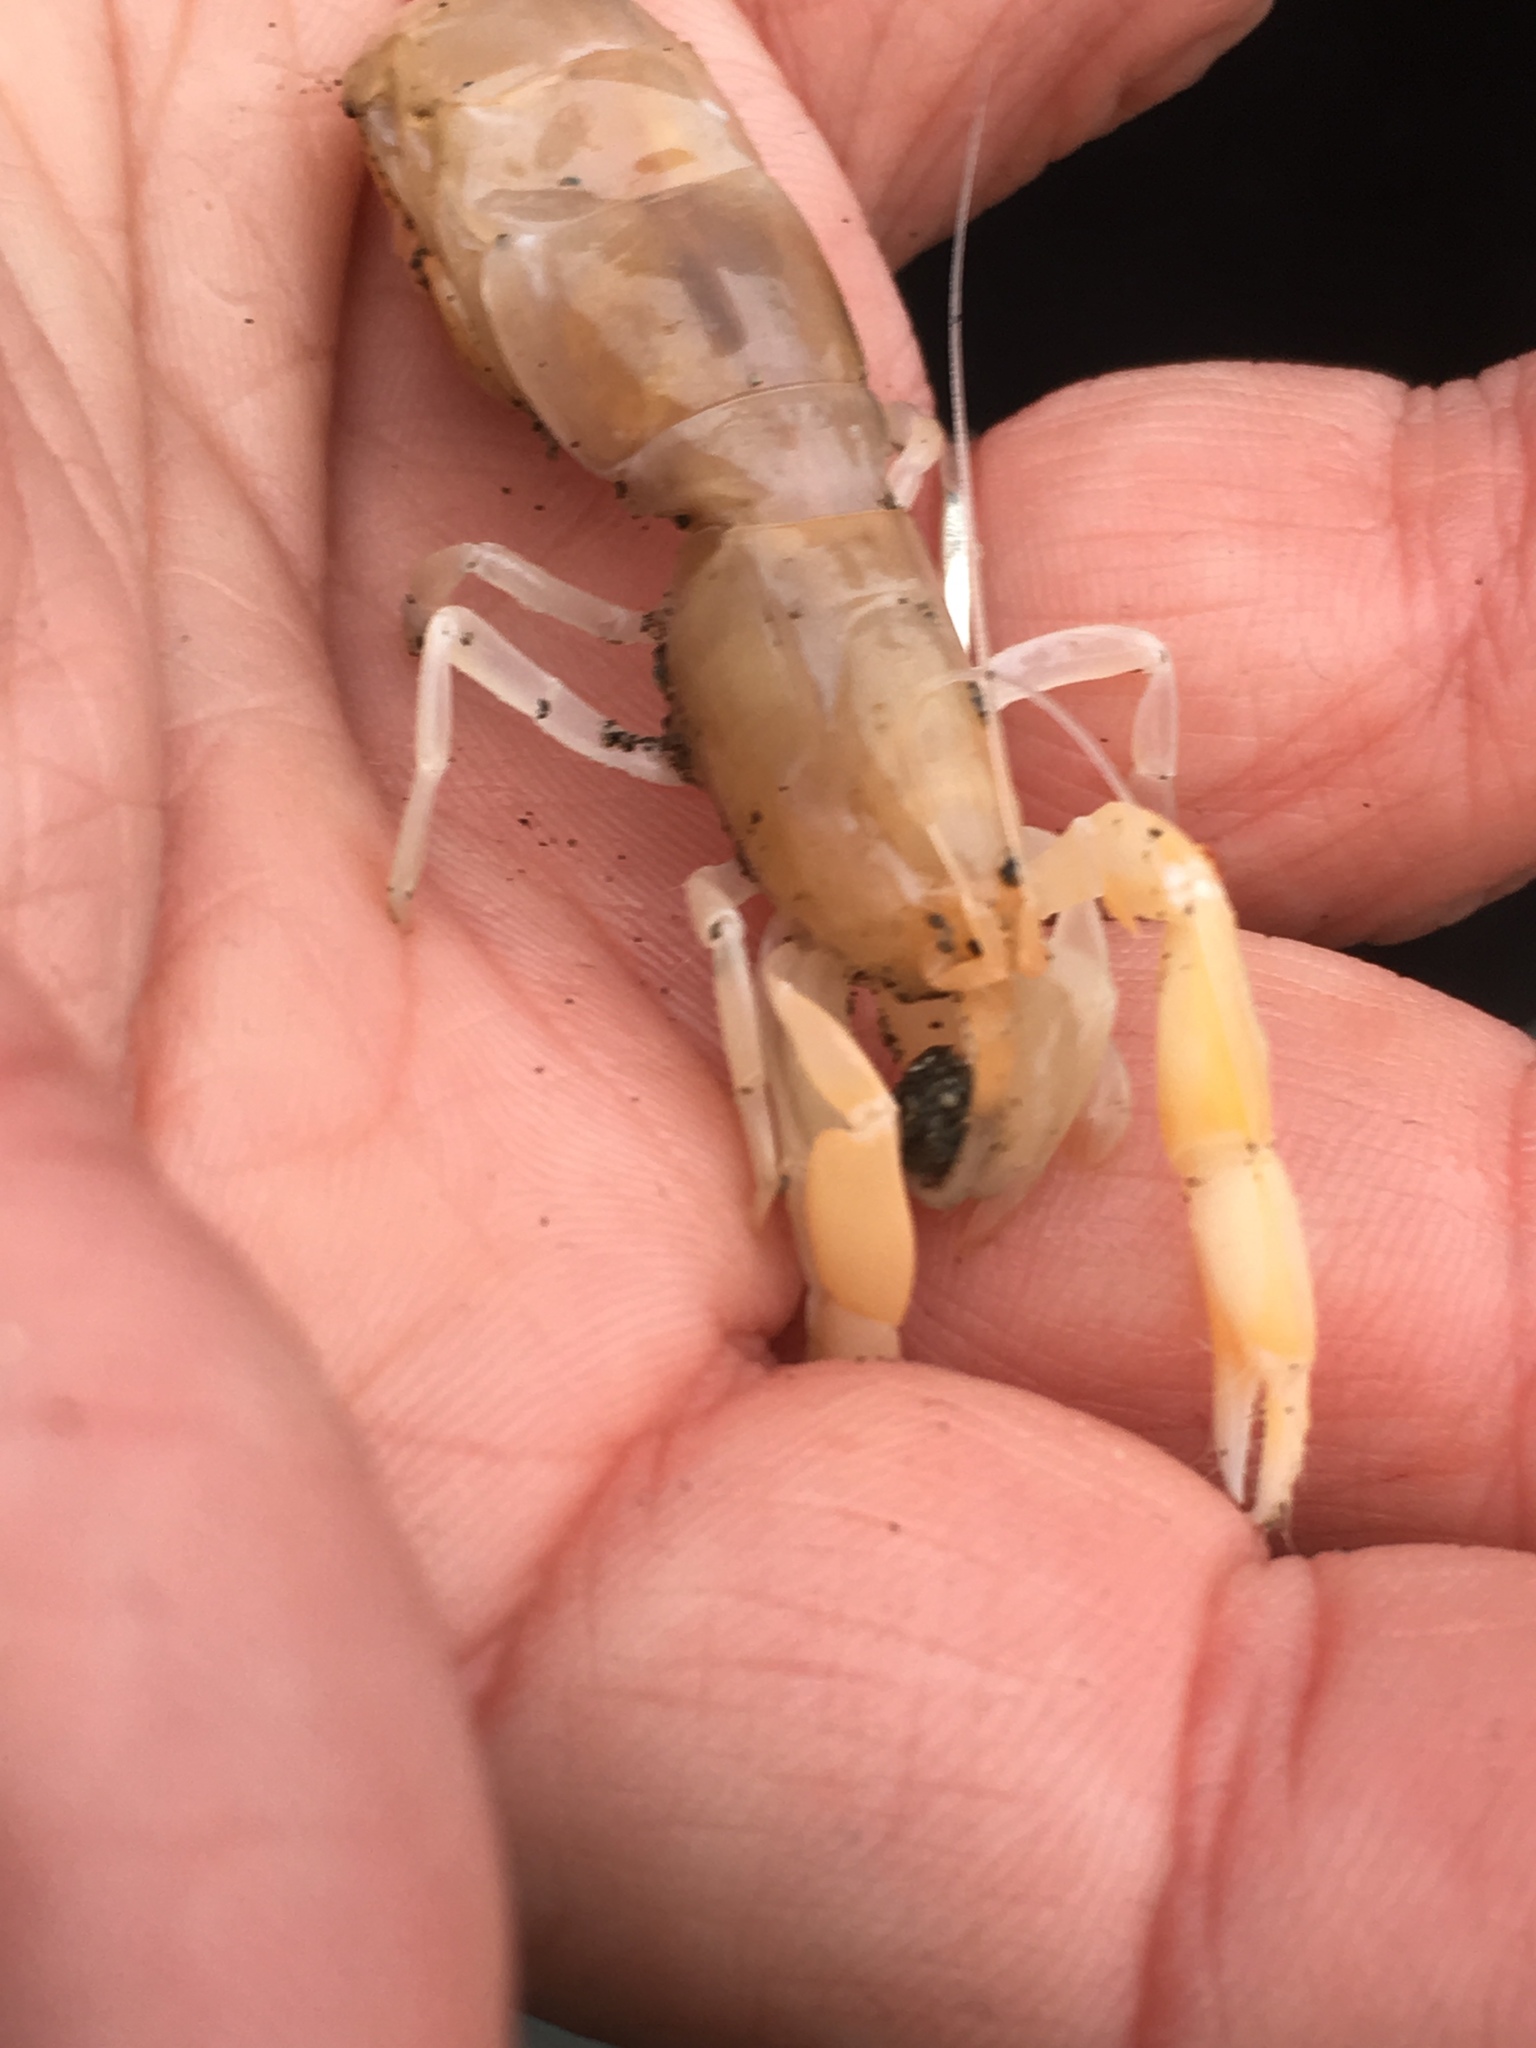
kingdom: Animalia
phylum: Arthropoda
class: Malacostraca
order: Decapoda
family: Callianassidae
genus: Neotrypaea
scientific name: Neotrypaea californiensis
